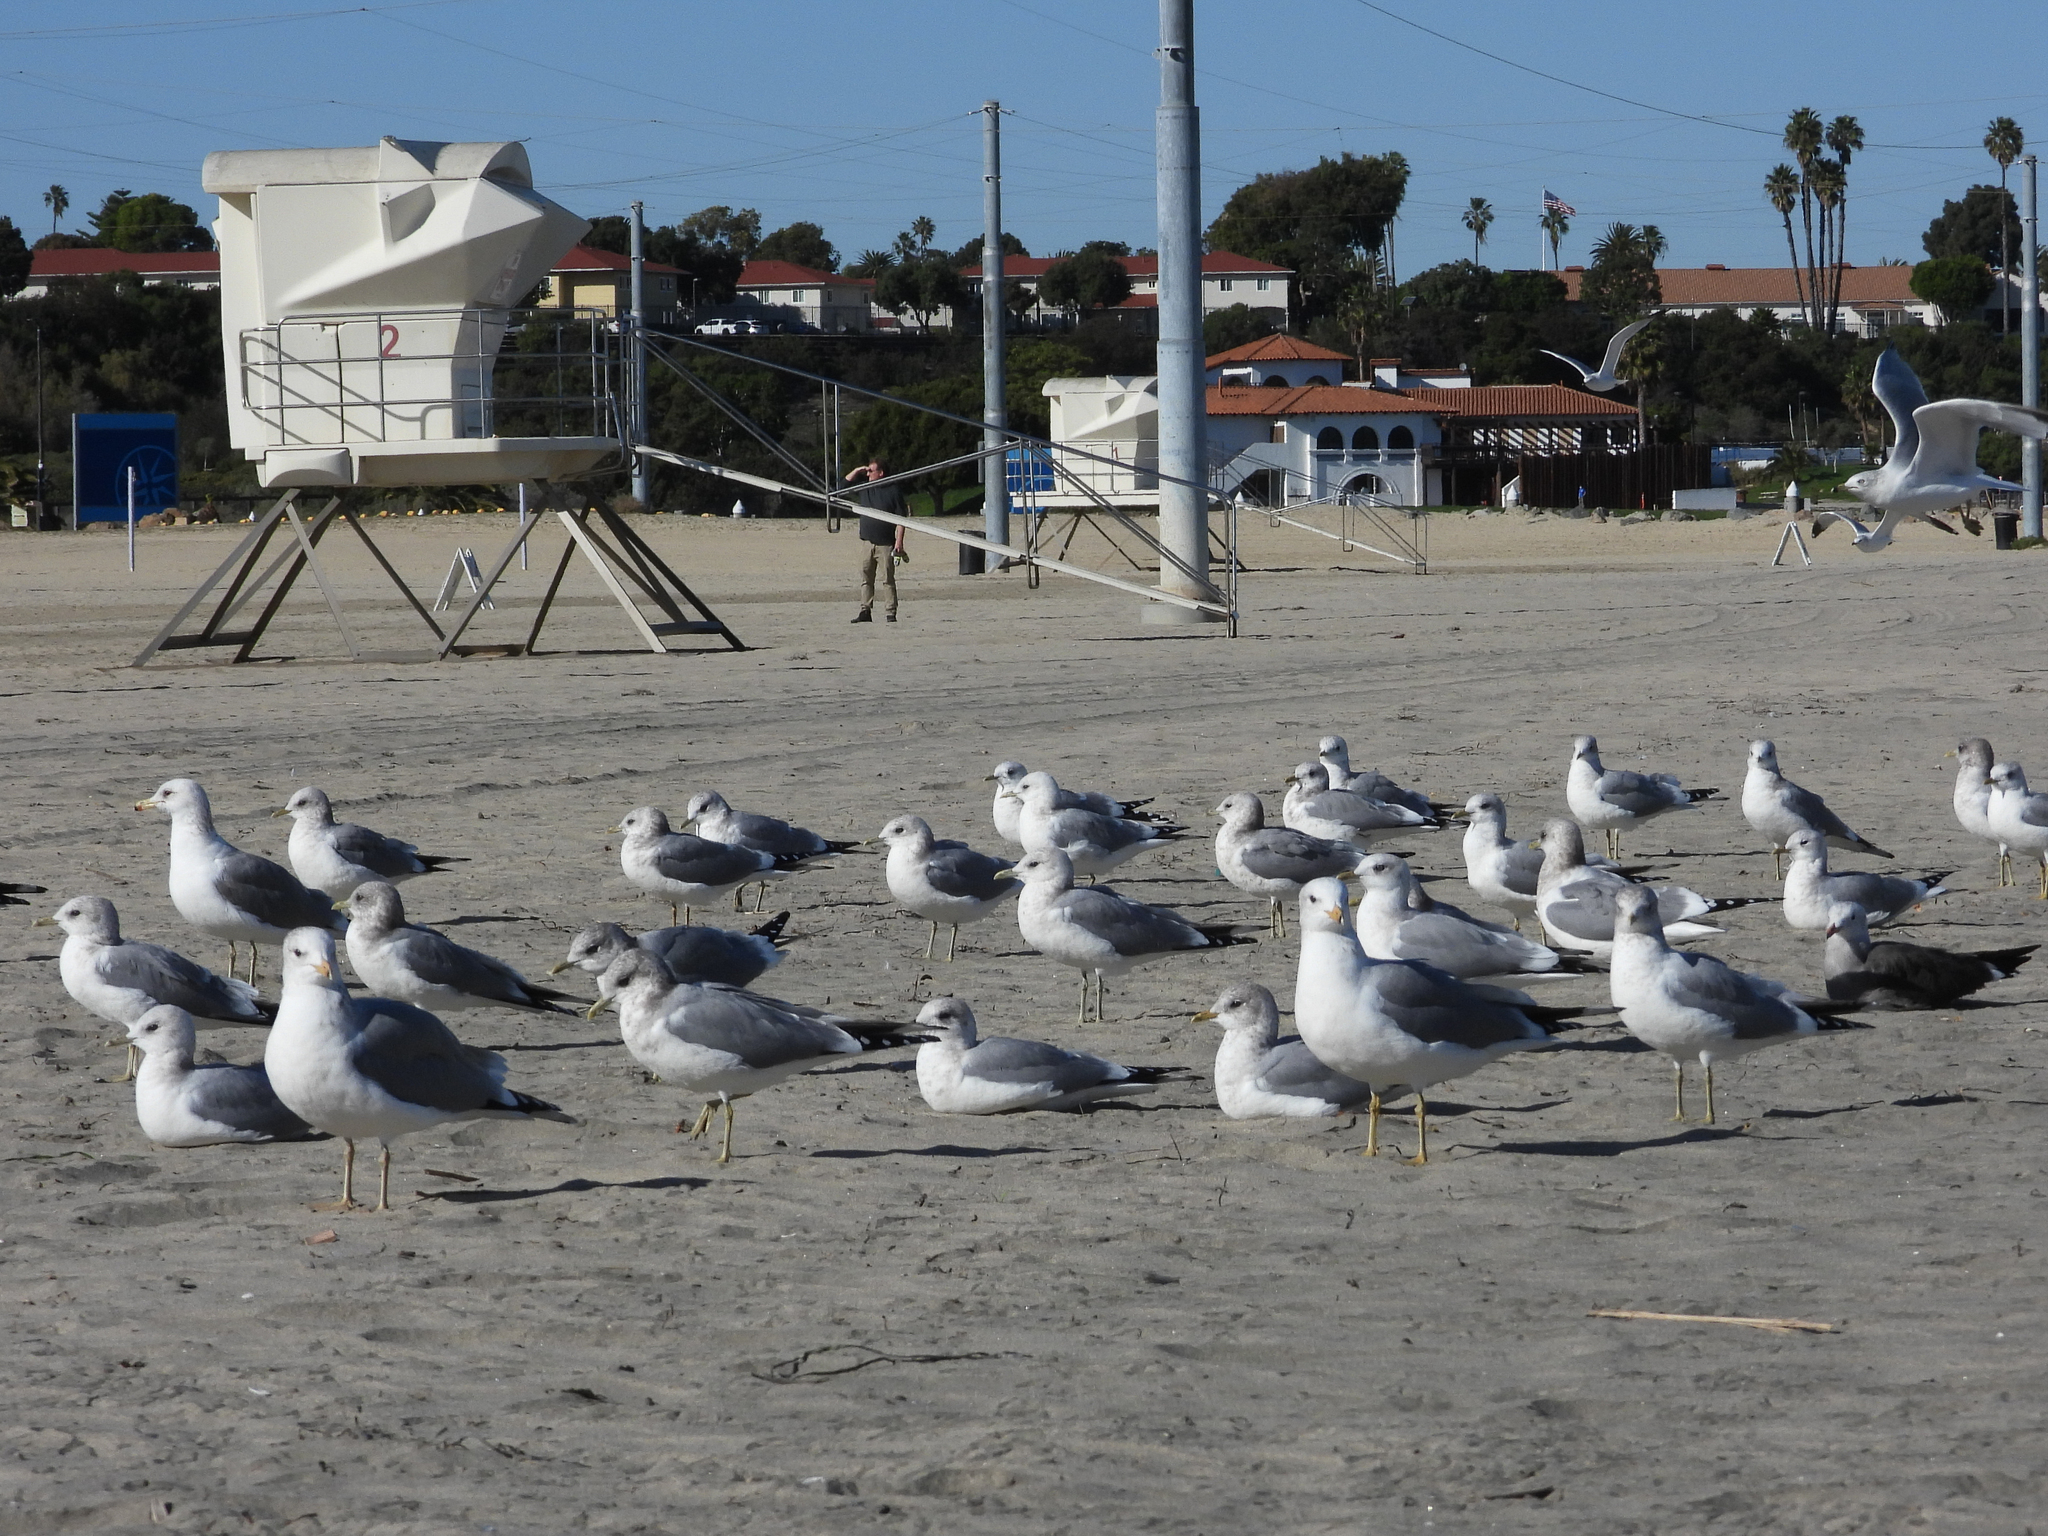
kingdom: Animalia
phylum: Chordata
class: Aves
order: Charadriiformes
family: Laridae
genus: Larus
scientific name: Larus brachyrhynchus
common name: Short-billed gull
